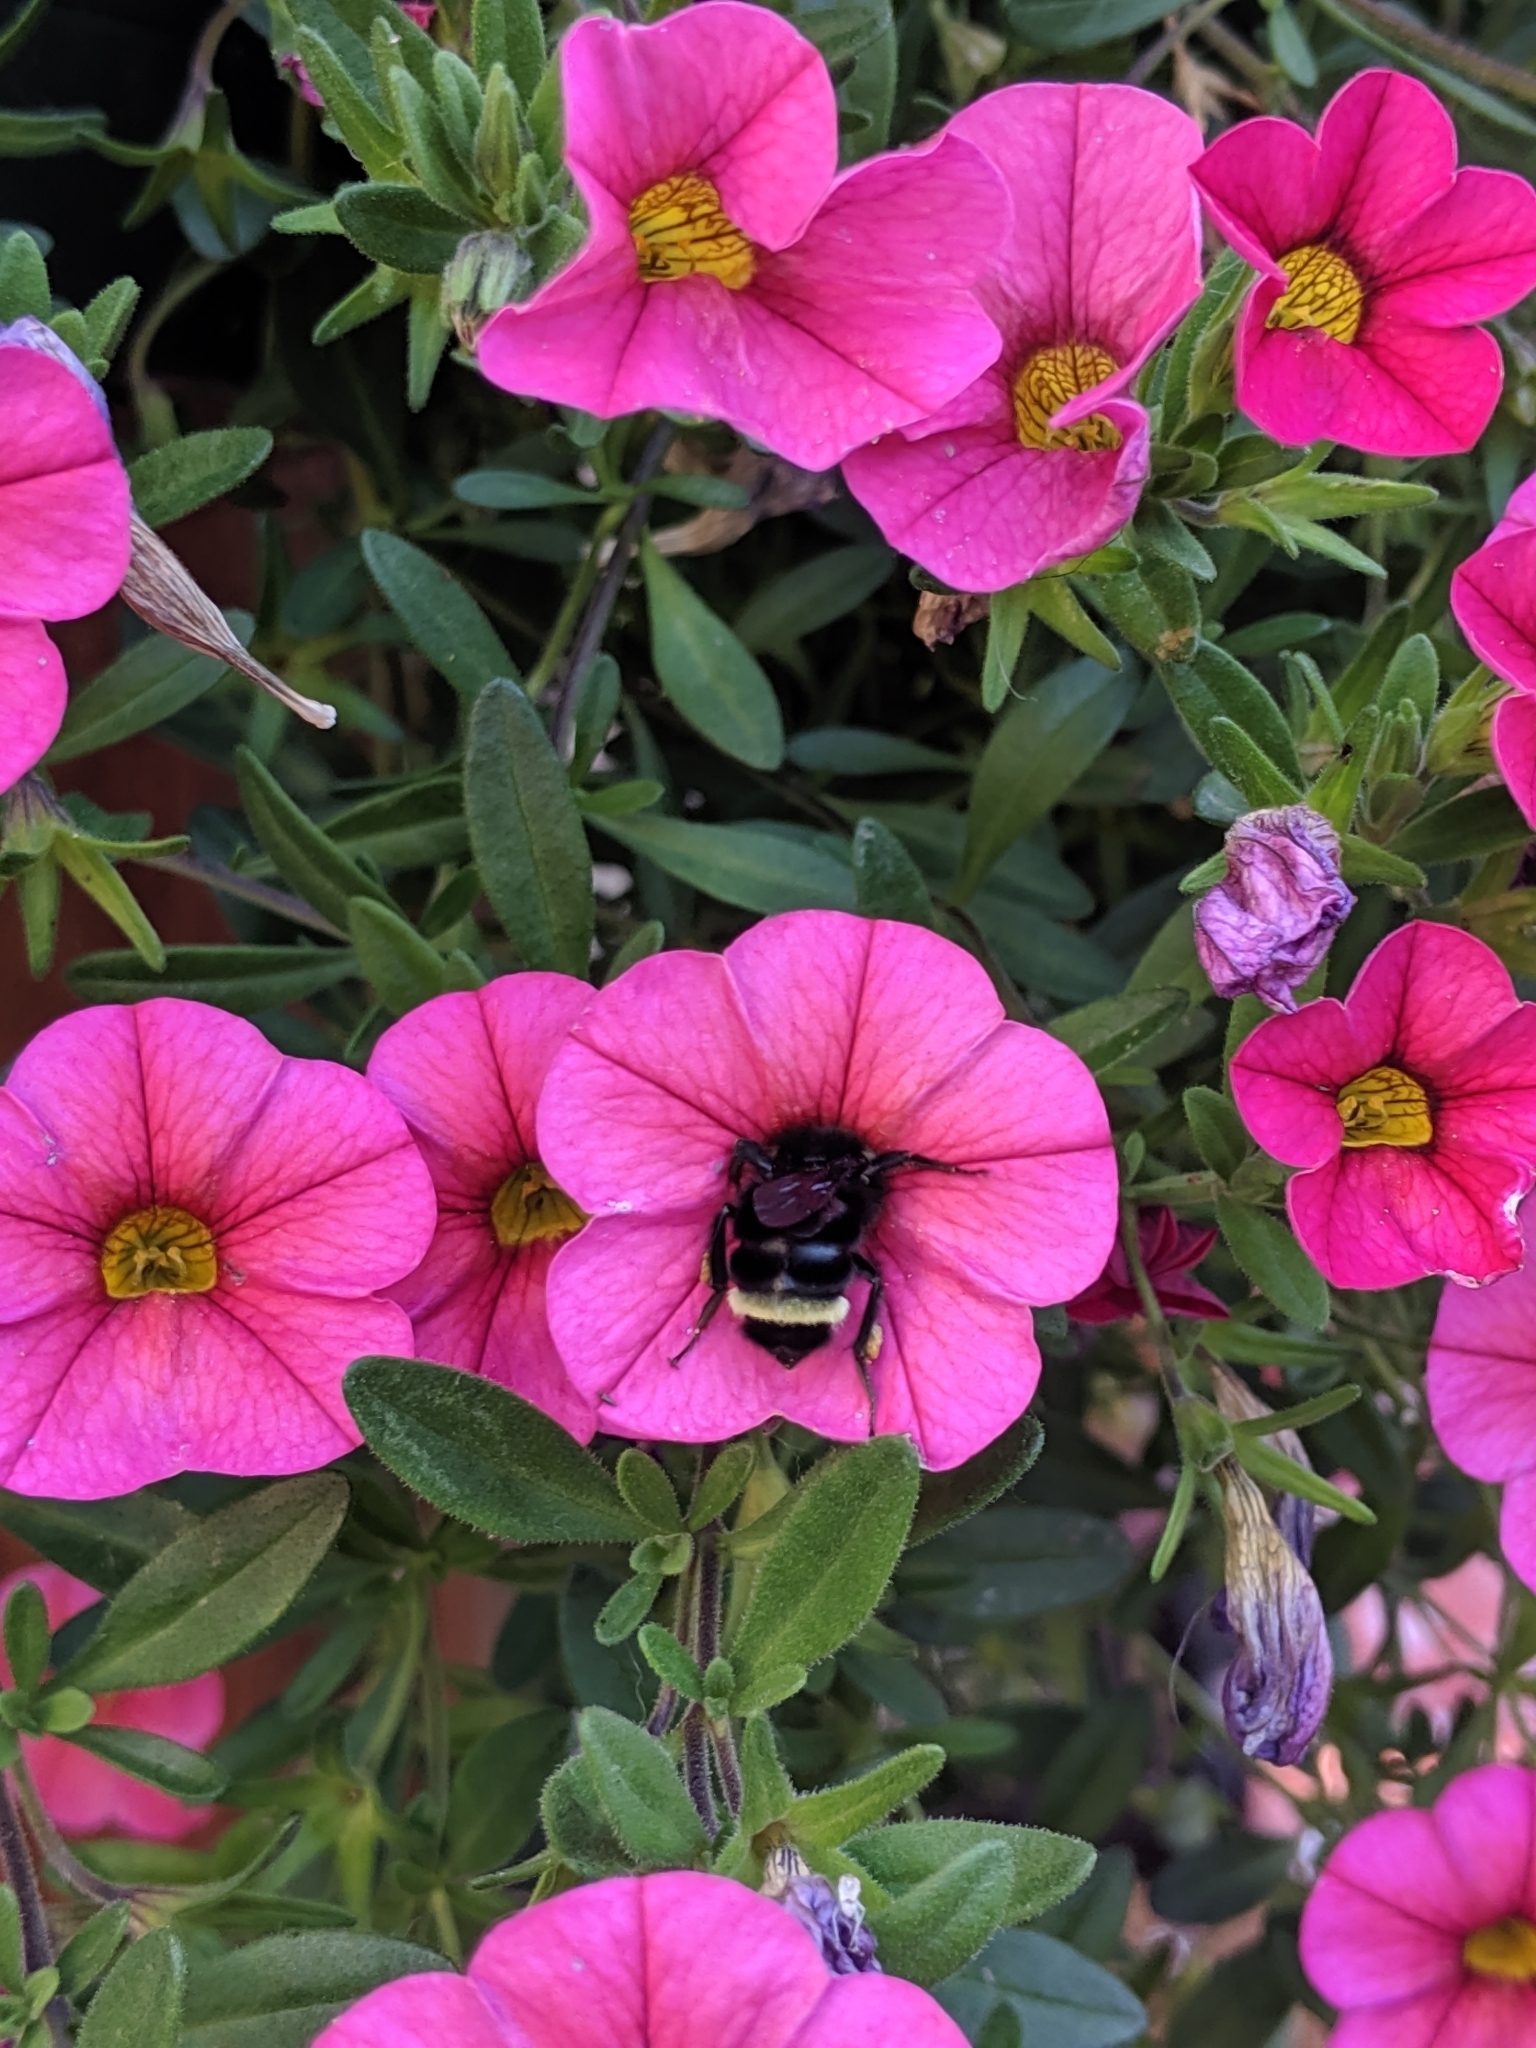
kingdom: Animalia
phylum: Arthropoda
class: Insecta
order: Hymenoptera
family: Apidae
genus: Bombus
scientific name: Bombus vosnesenskii
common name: Vosnesensky bumble bee
